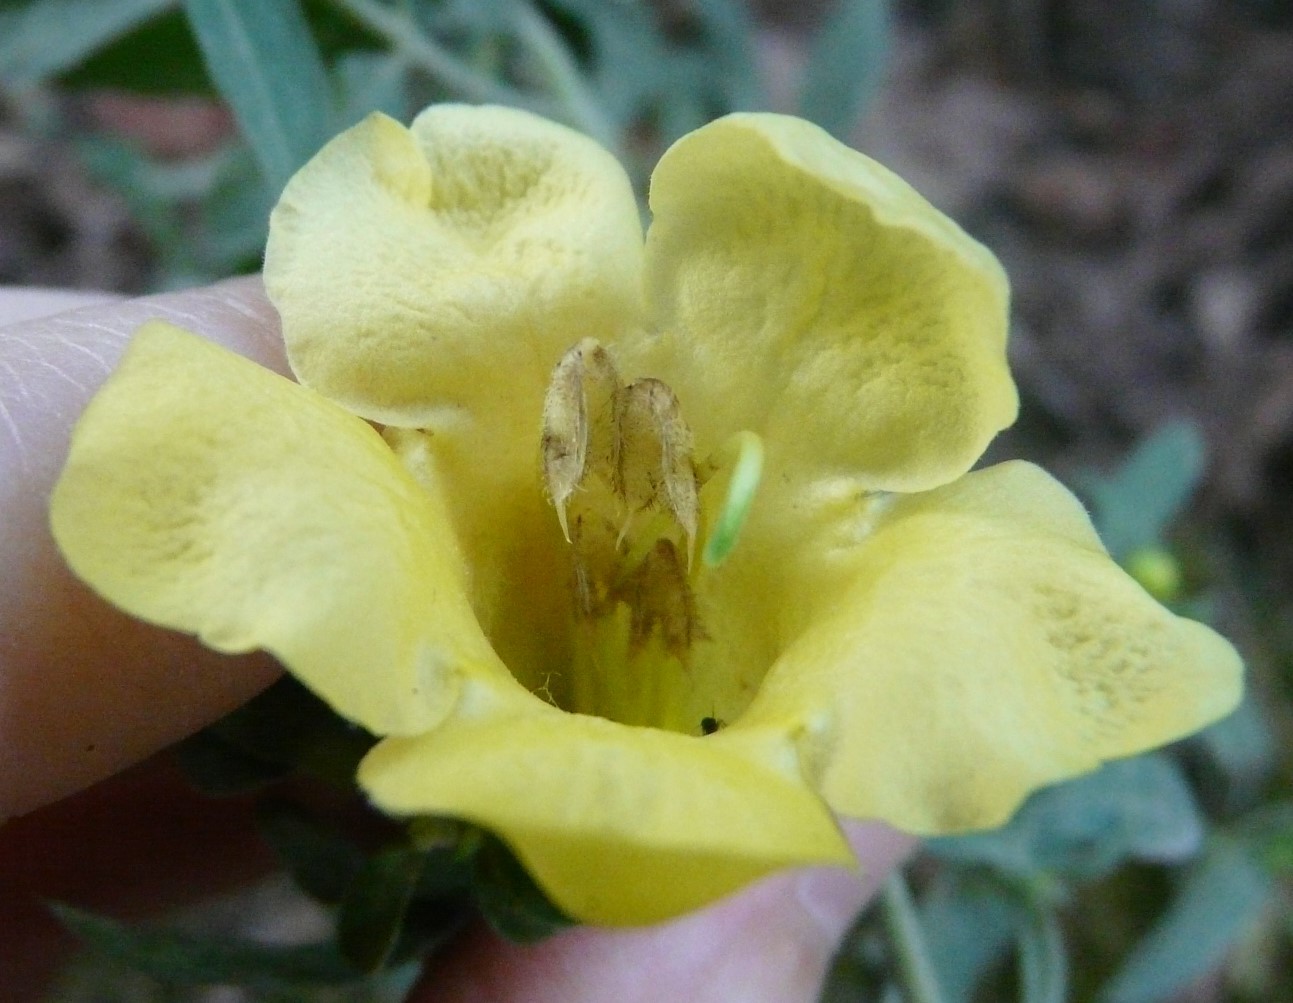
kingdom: Plantae
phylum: Tracheophyta
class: Magnoliopsida
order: Lamiales
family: Orobanchaceae
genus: Aureolaria
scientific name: Aureolaria grandiflora
